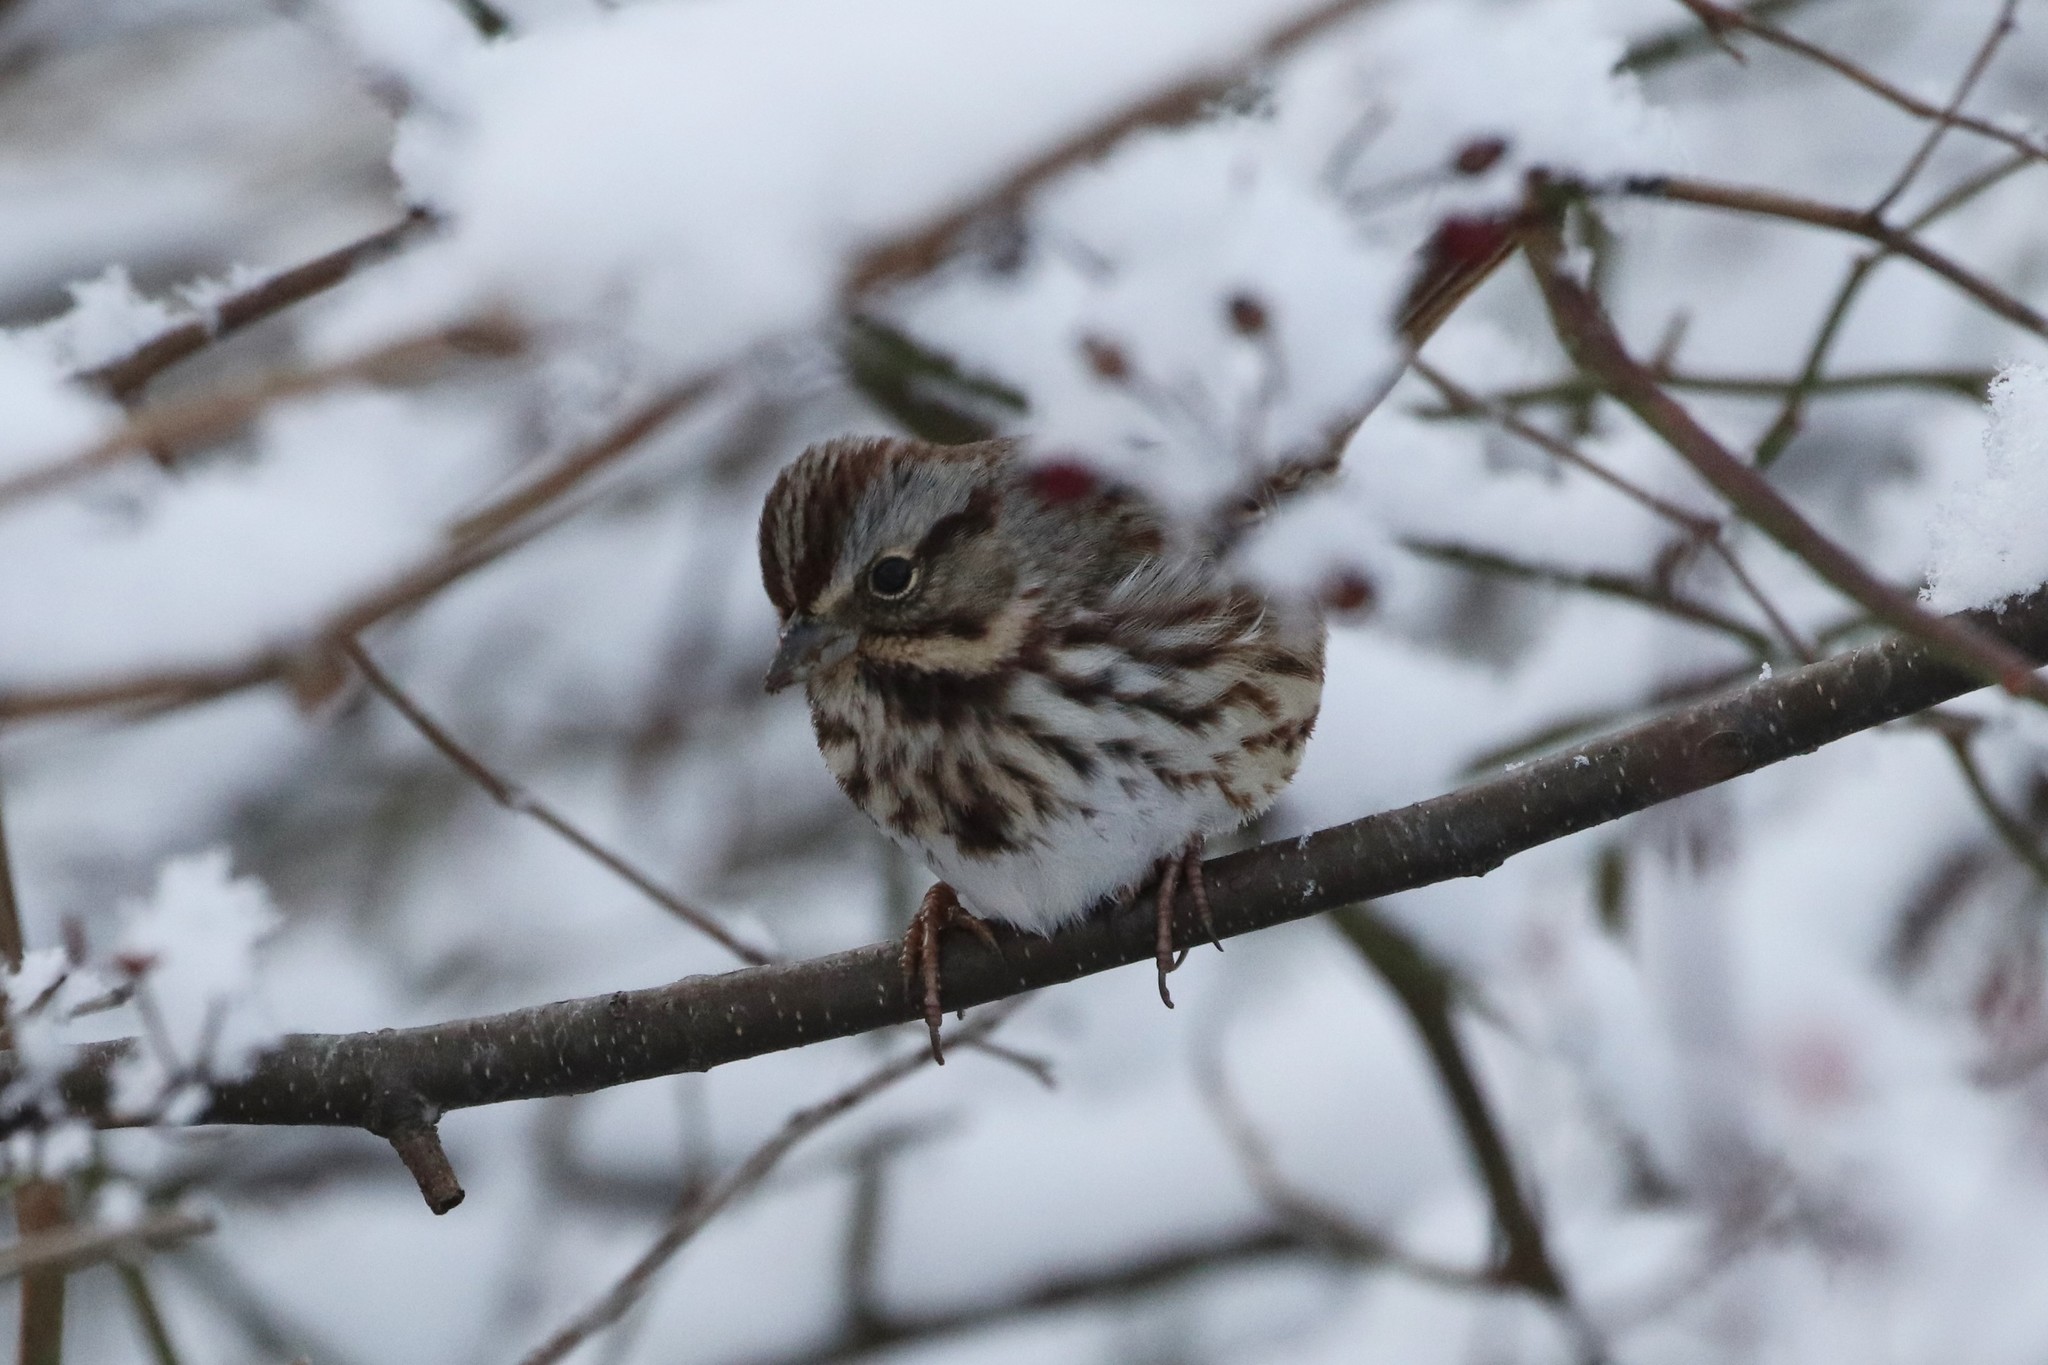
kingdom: Animalia
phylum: Chordata
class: Aves
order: Passeriformes
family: Passerellidae
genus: Melospiza
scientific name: Melospiza melodia
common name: Song sparrow
